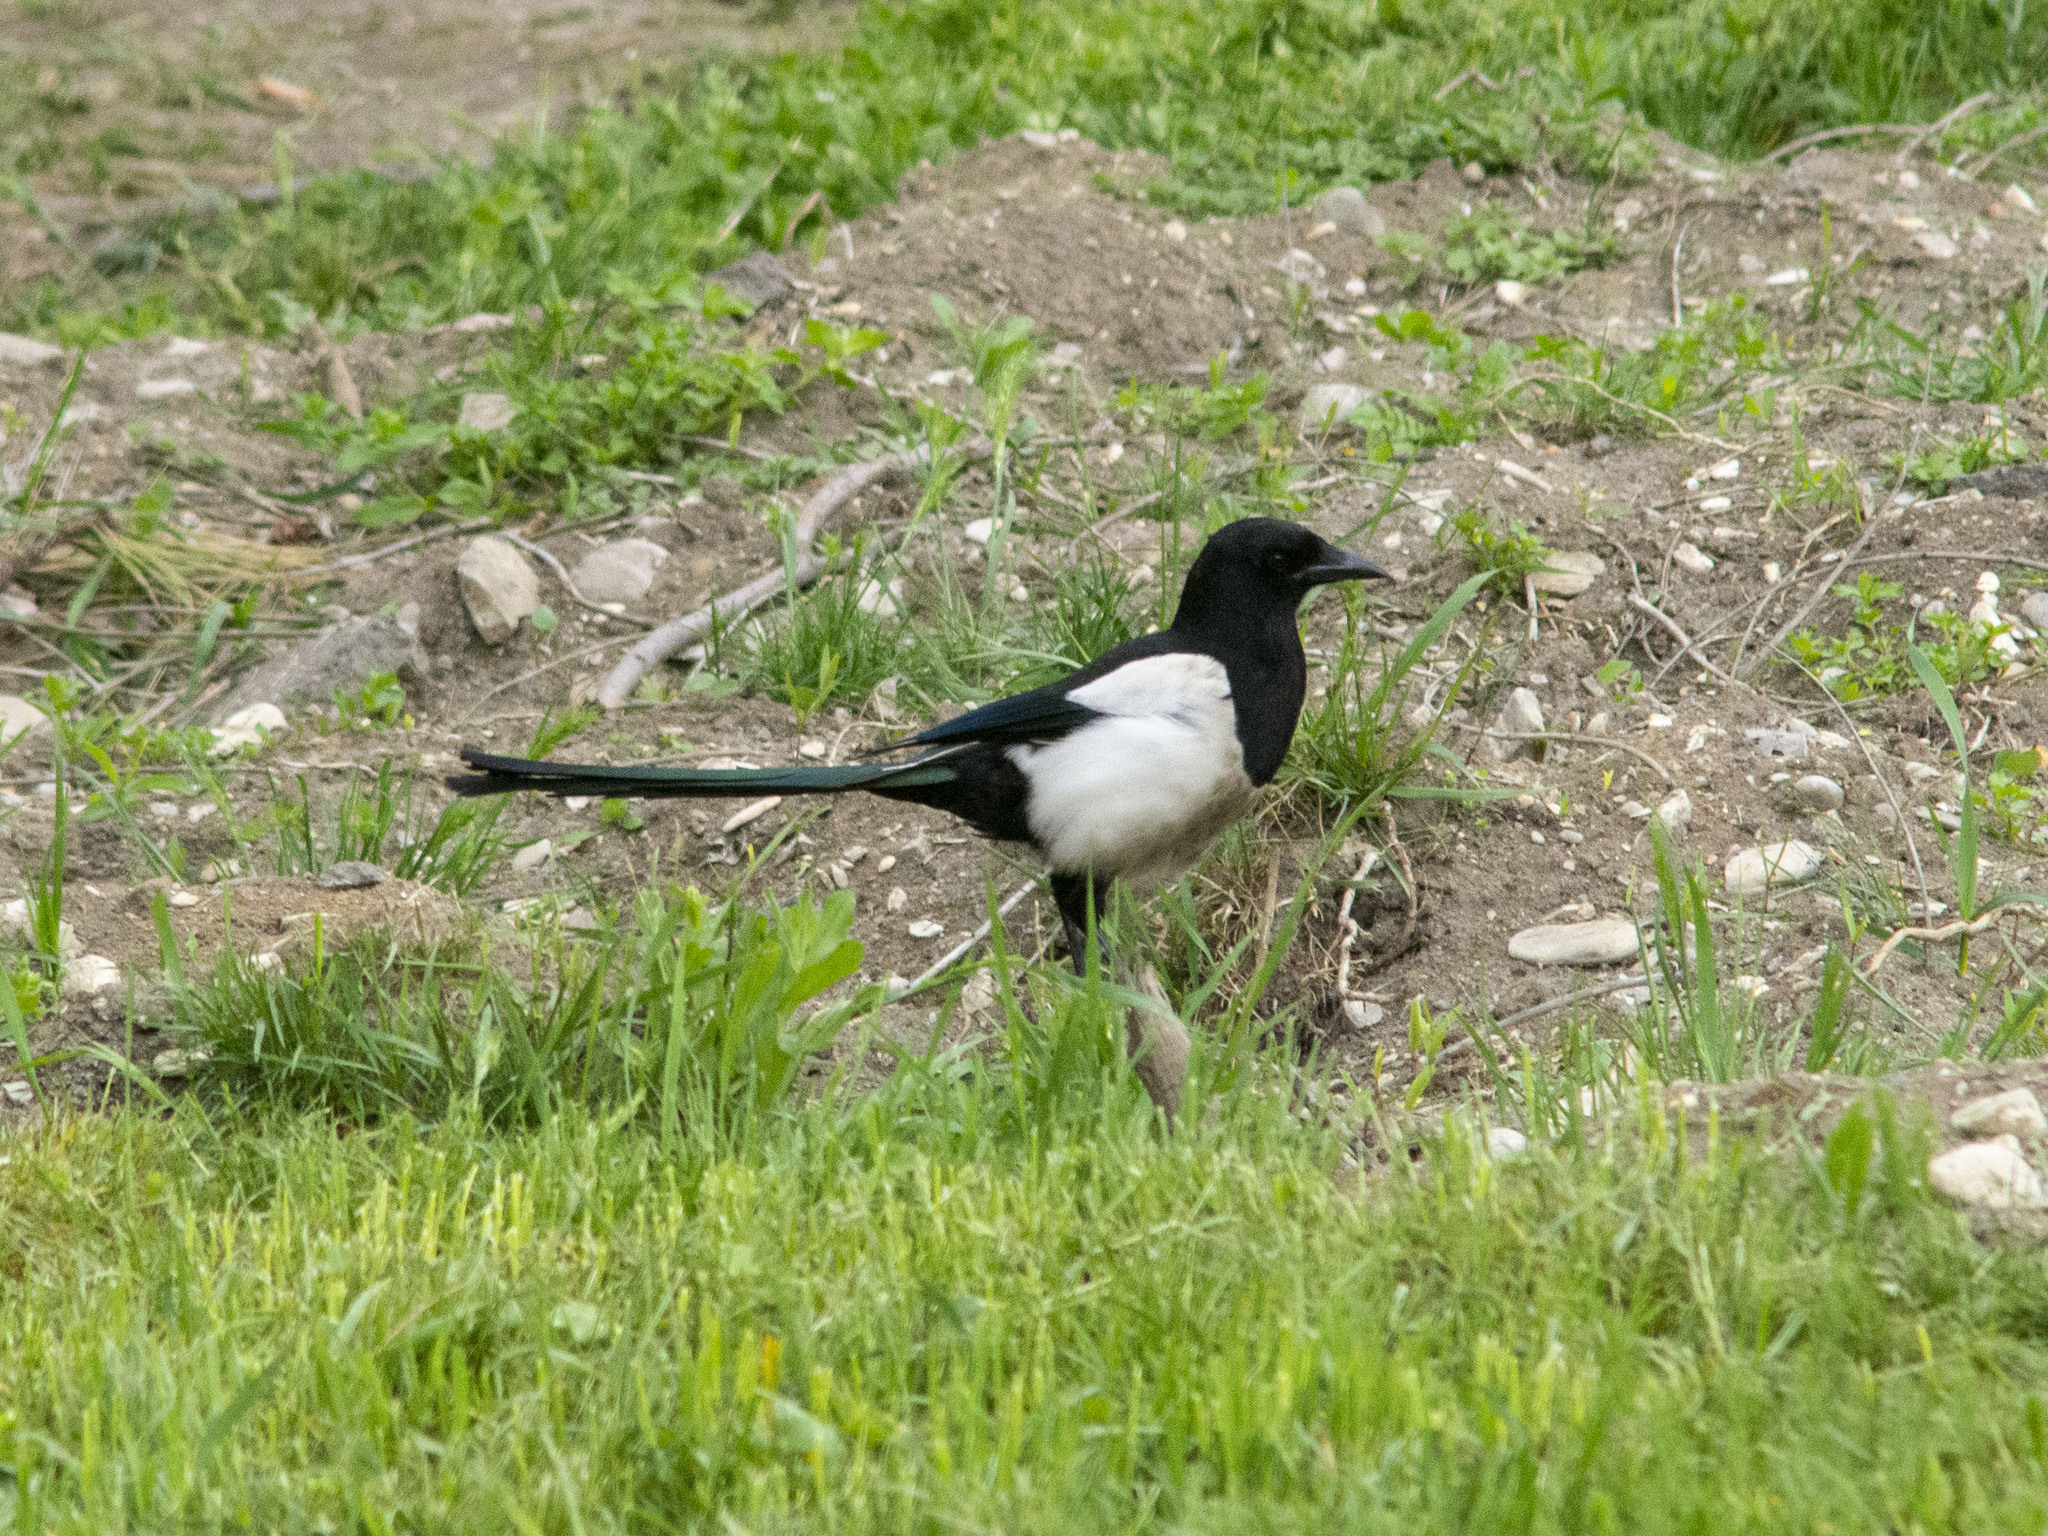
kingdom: Animalia
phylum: Chordata
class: Aves
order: Passeriformes
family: Corvidae
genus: Pica
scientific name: Pica pica
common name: Eurasian magpie
